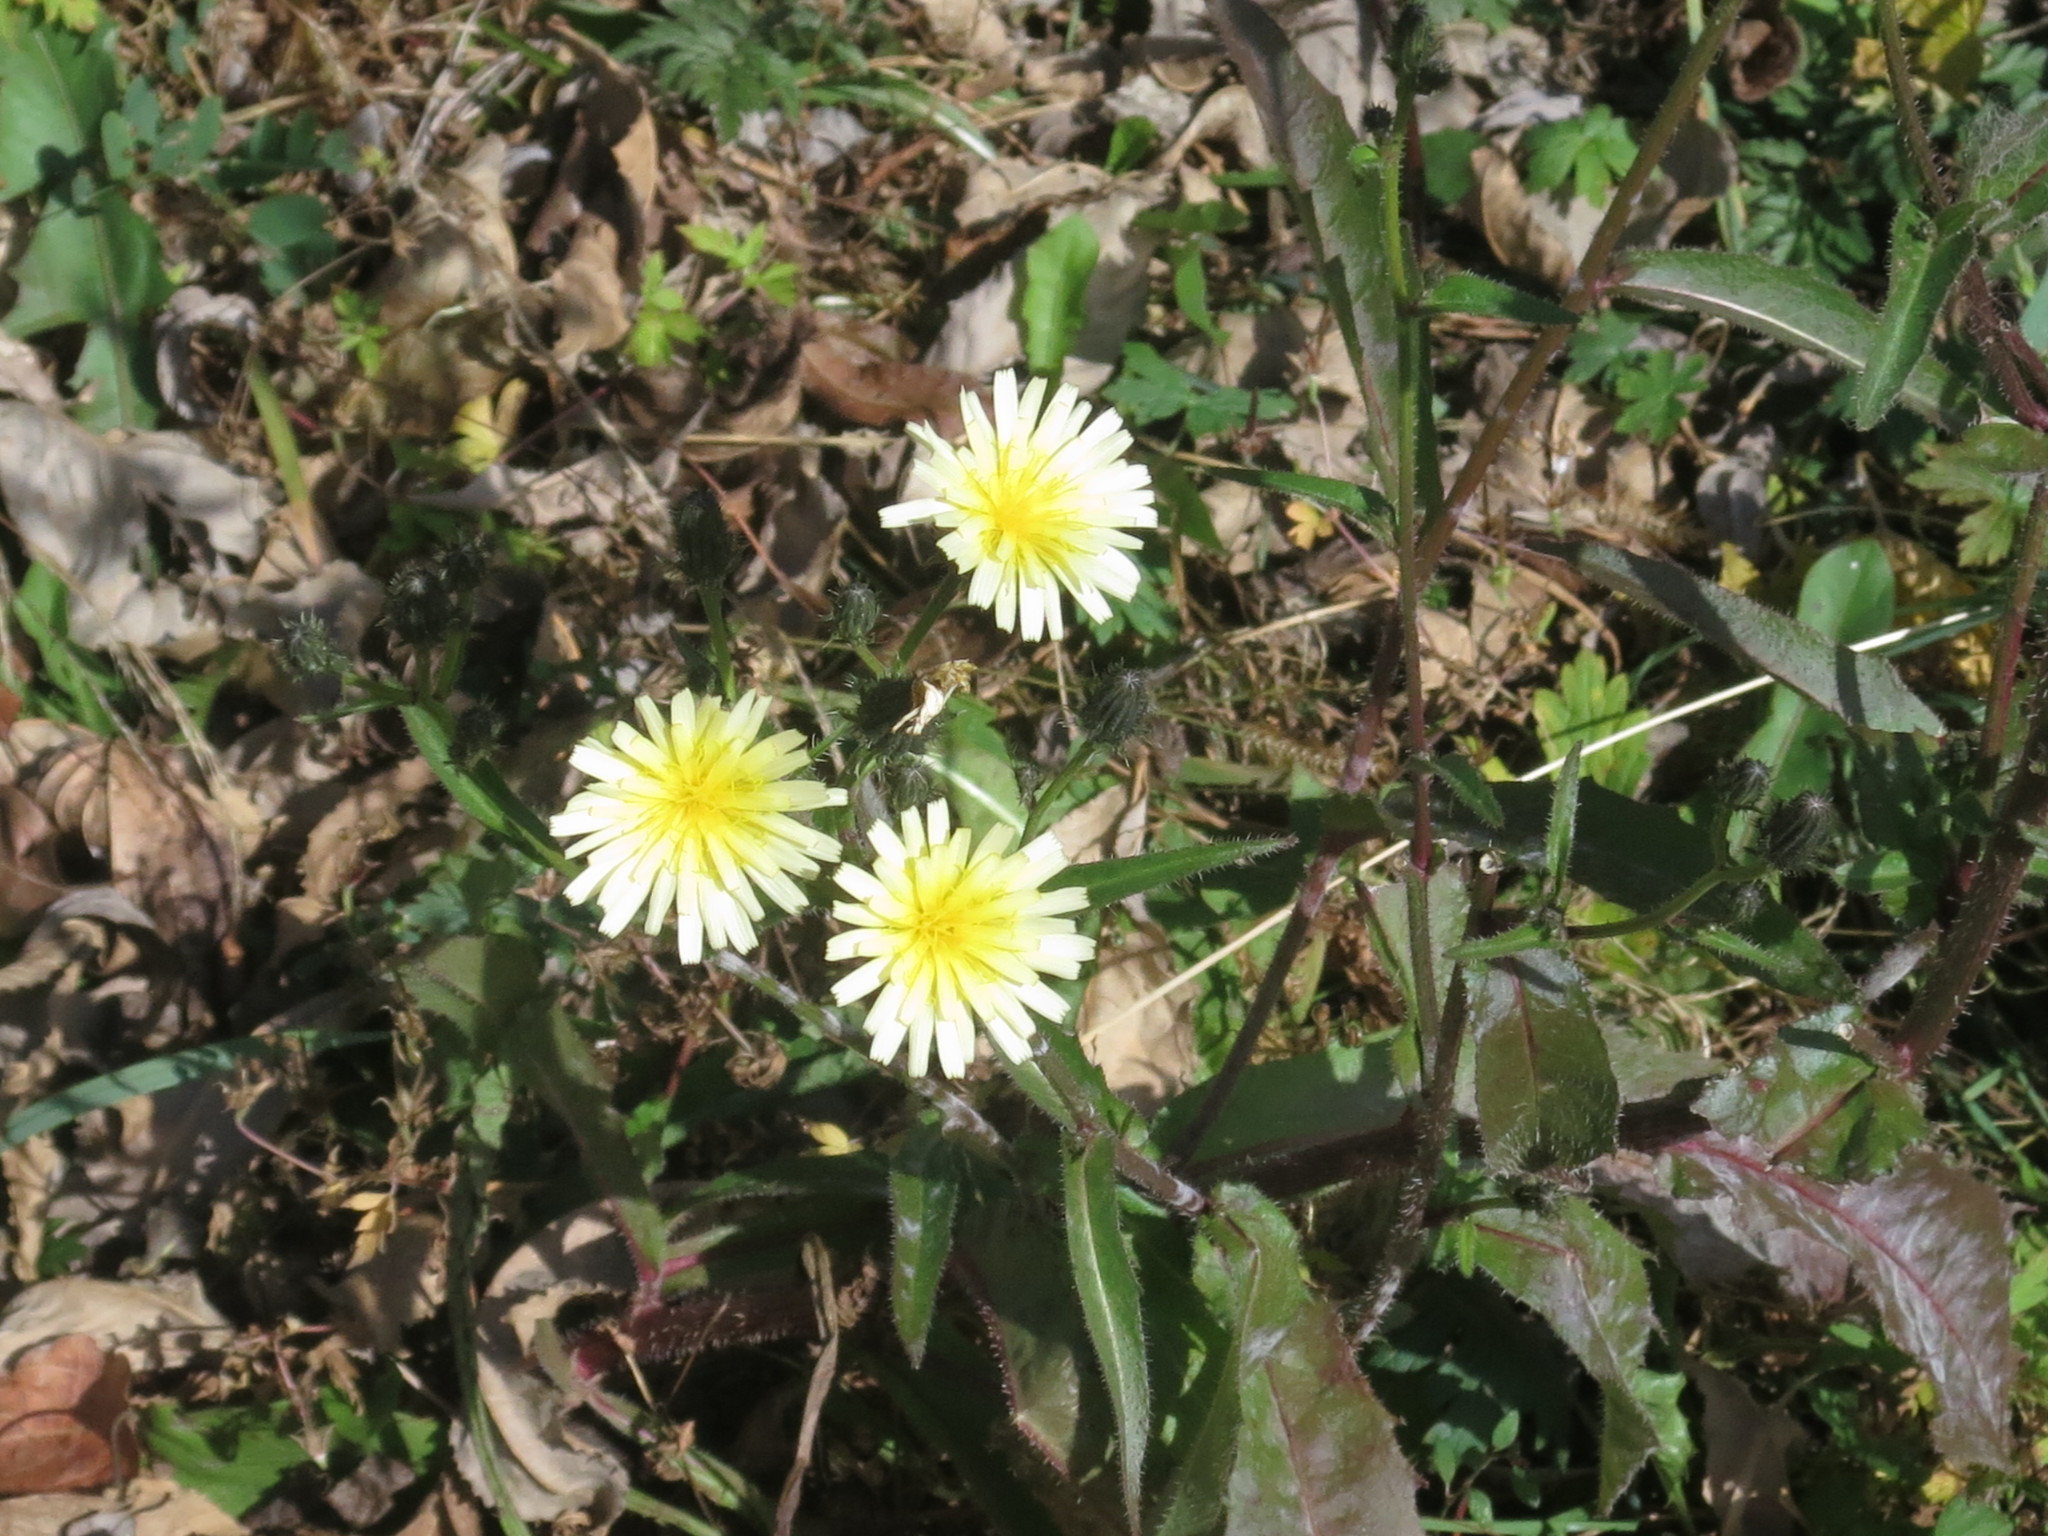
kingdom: Plantae
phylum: Tracheophyta
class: Magnoliopsida
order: Asterales
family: Asteraceae
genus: Picris
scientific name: Picris davurica
